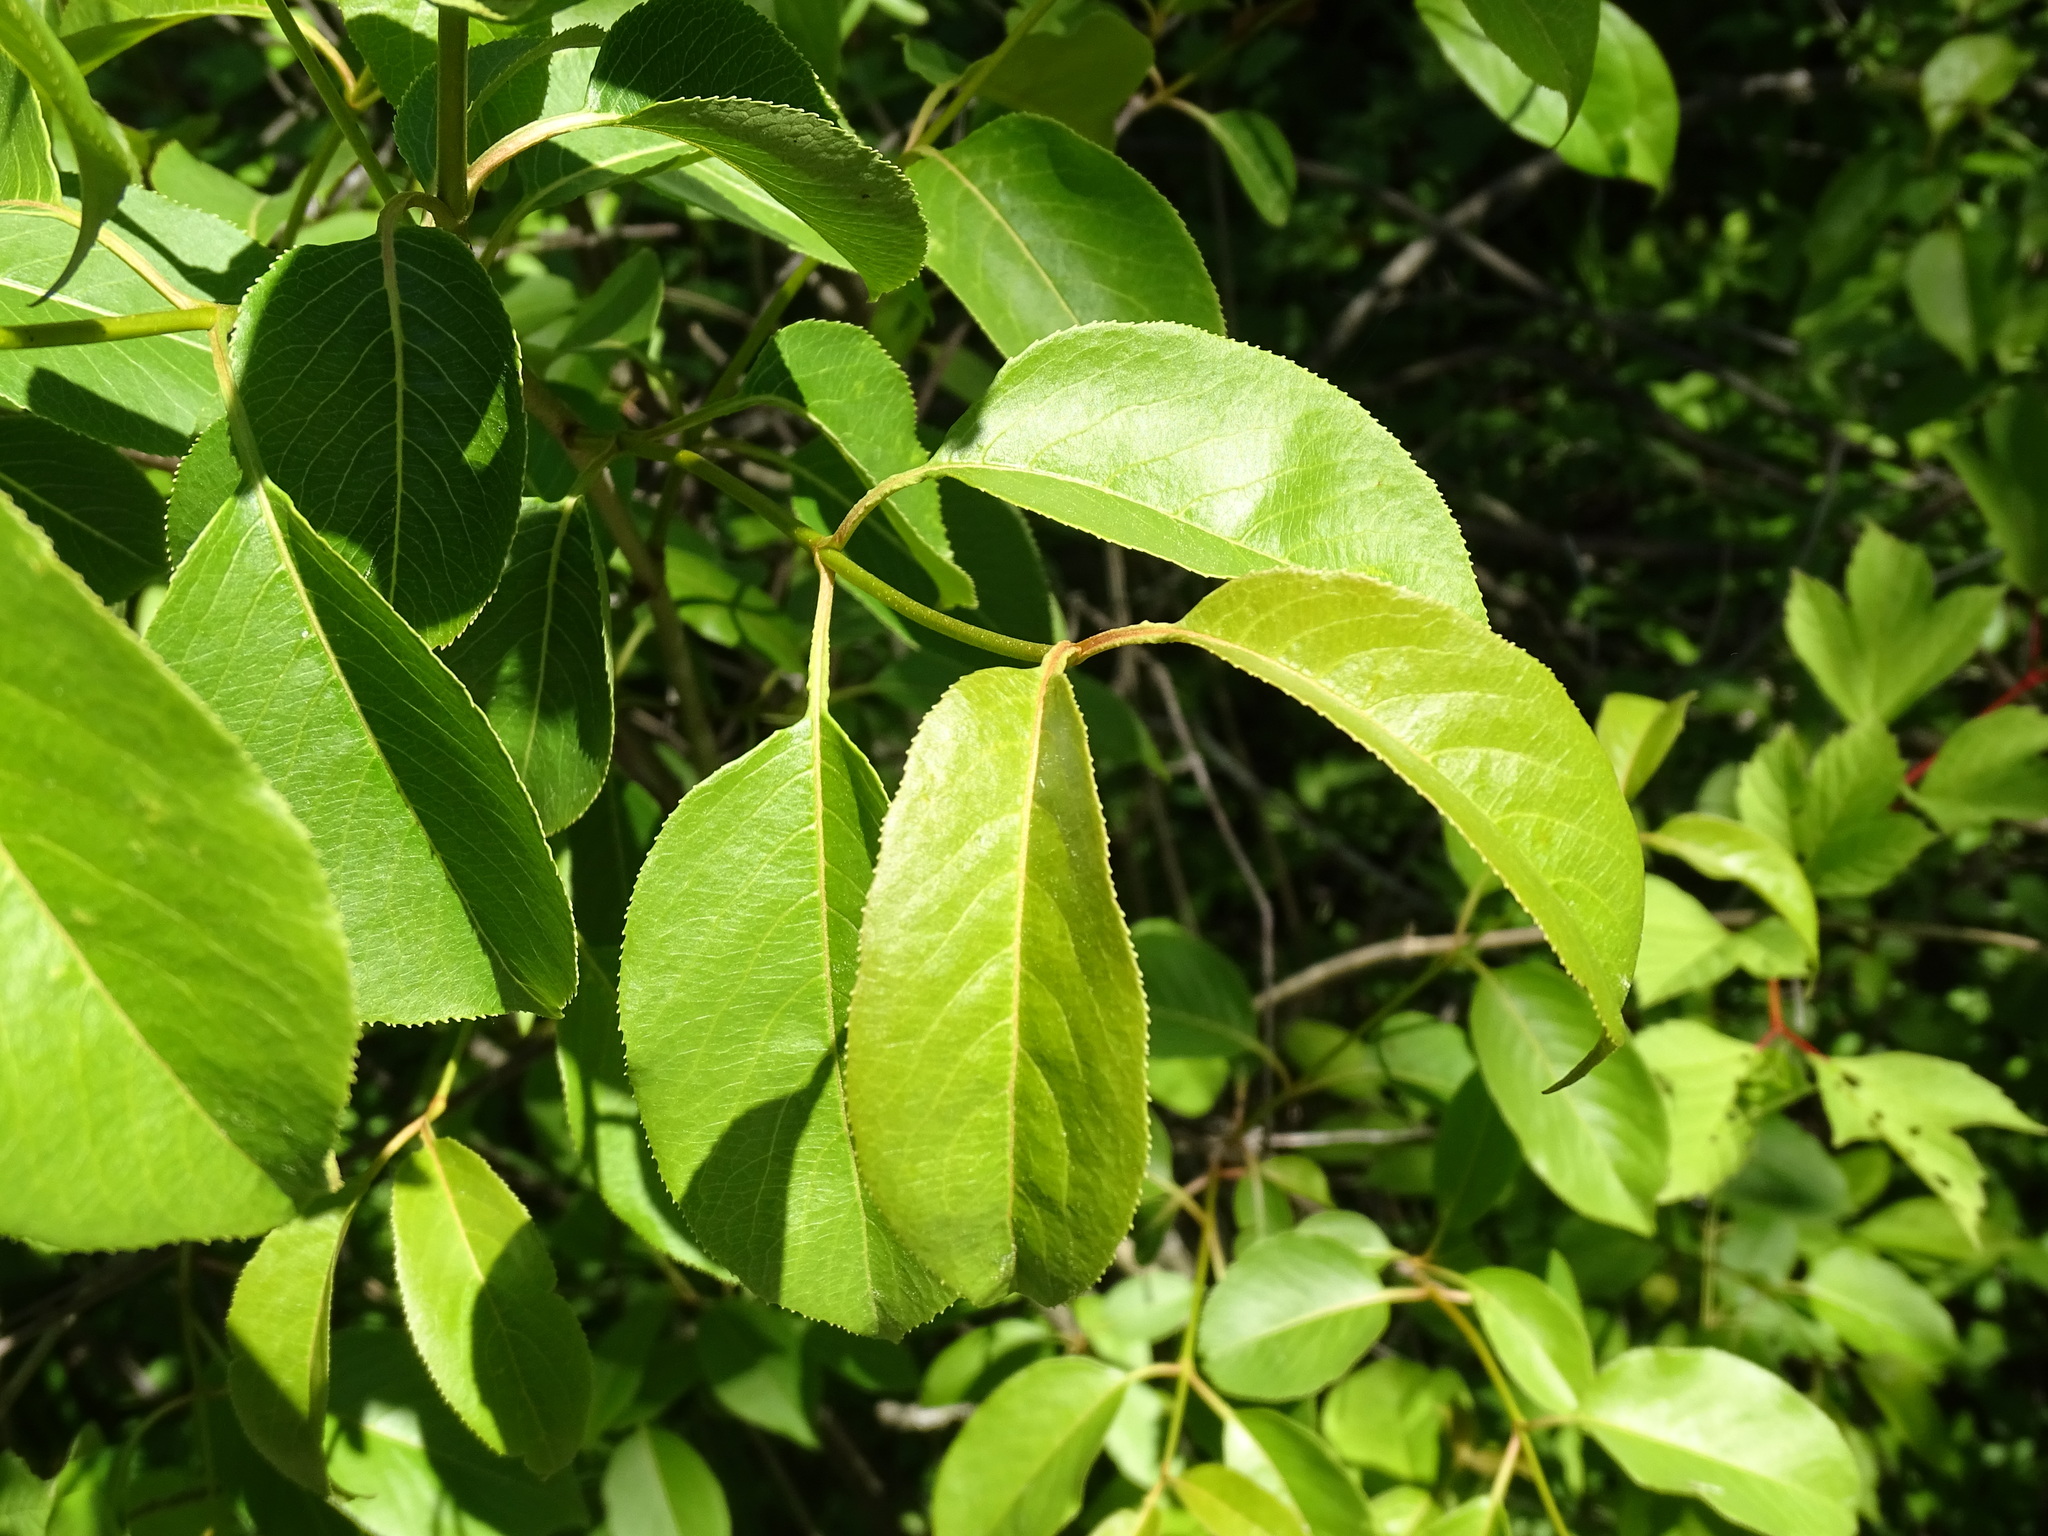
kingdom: Plantae
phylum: Tracheophyta
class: Magnoliopsida
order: Dipsacales
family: Viburnaceae
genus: Viburnum
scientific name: Viburnum lentago
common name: Black haw
